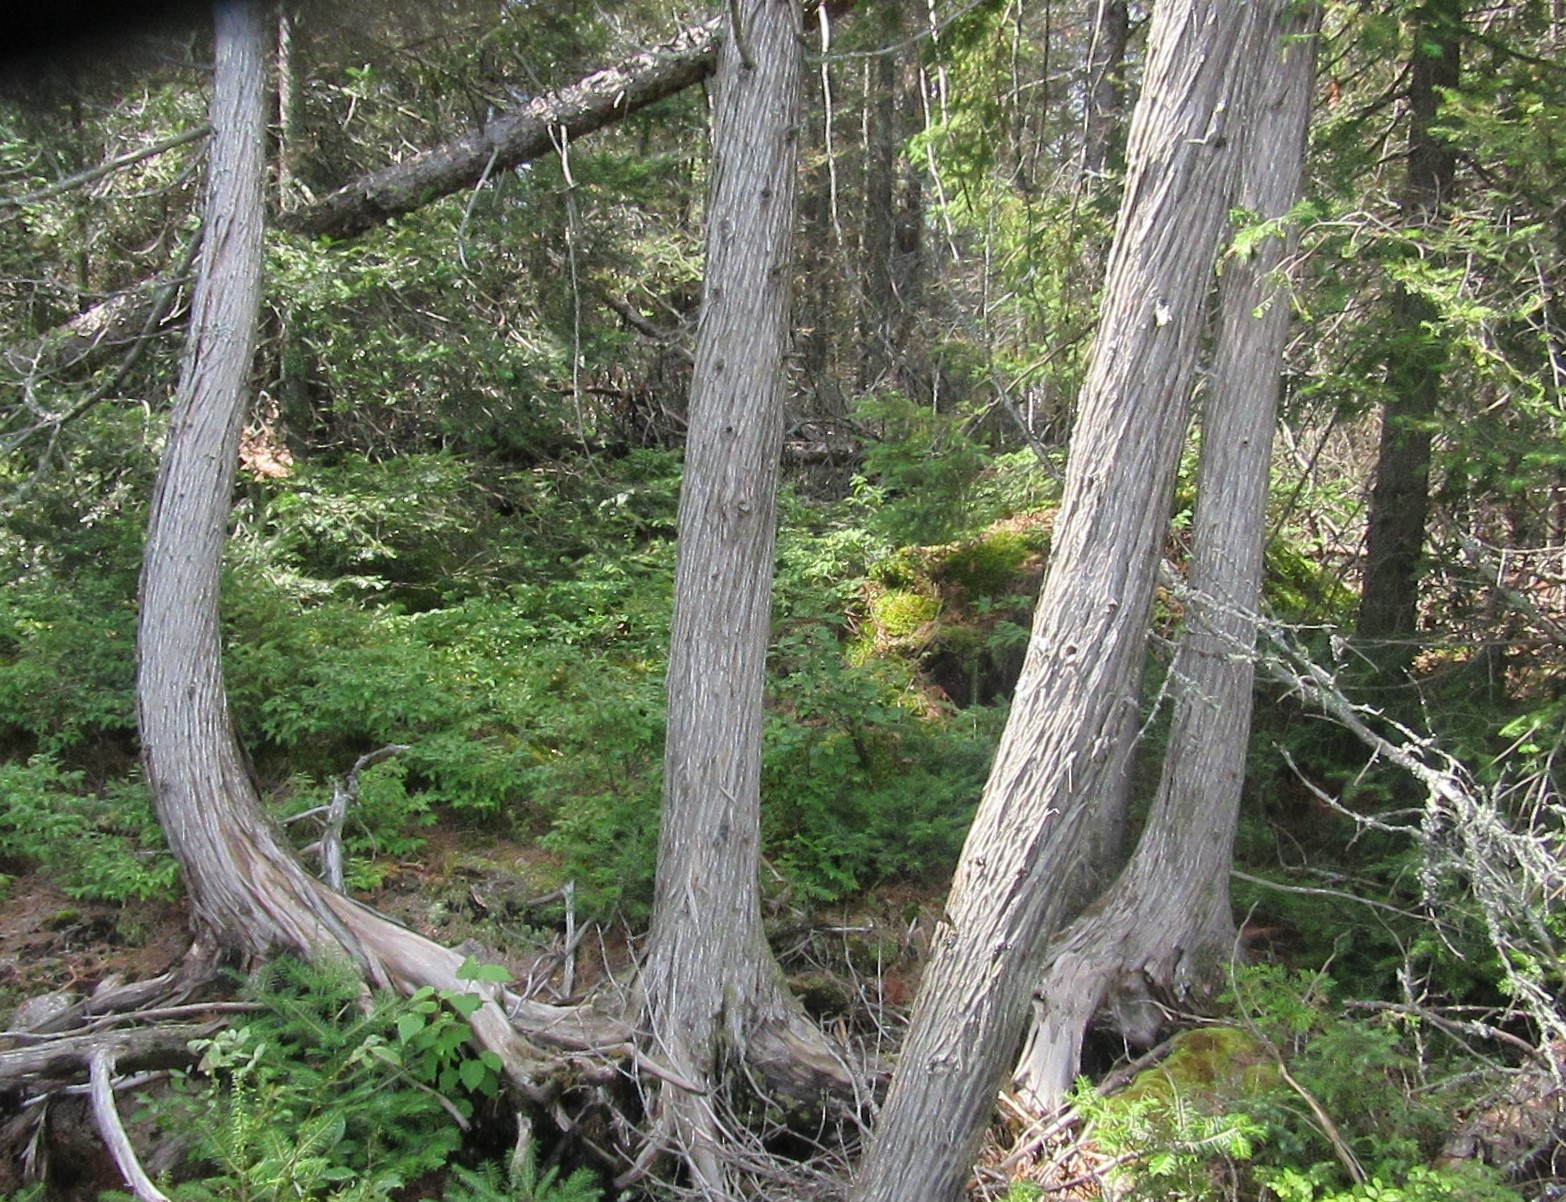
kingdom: Plantae
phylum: Tracheophyta
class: Pinopsida
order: Pinales
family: Cupressaceae
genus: Thuja
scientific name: Thuja occidentalis
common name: Northern white-cedar
